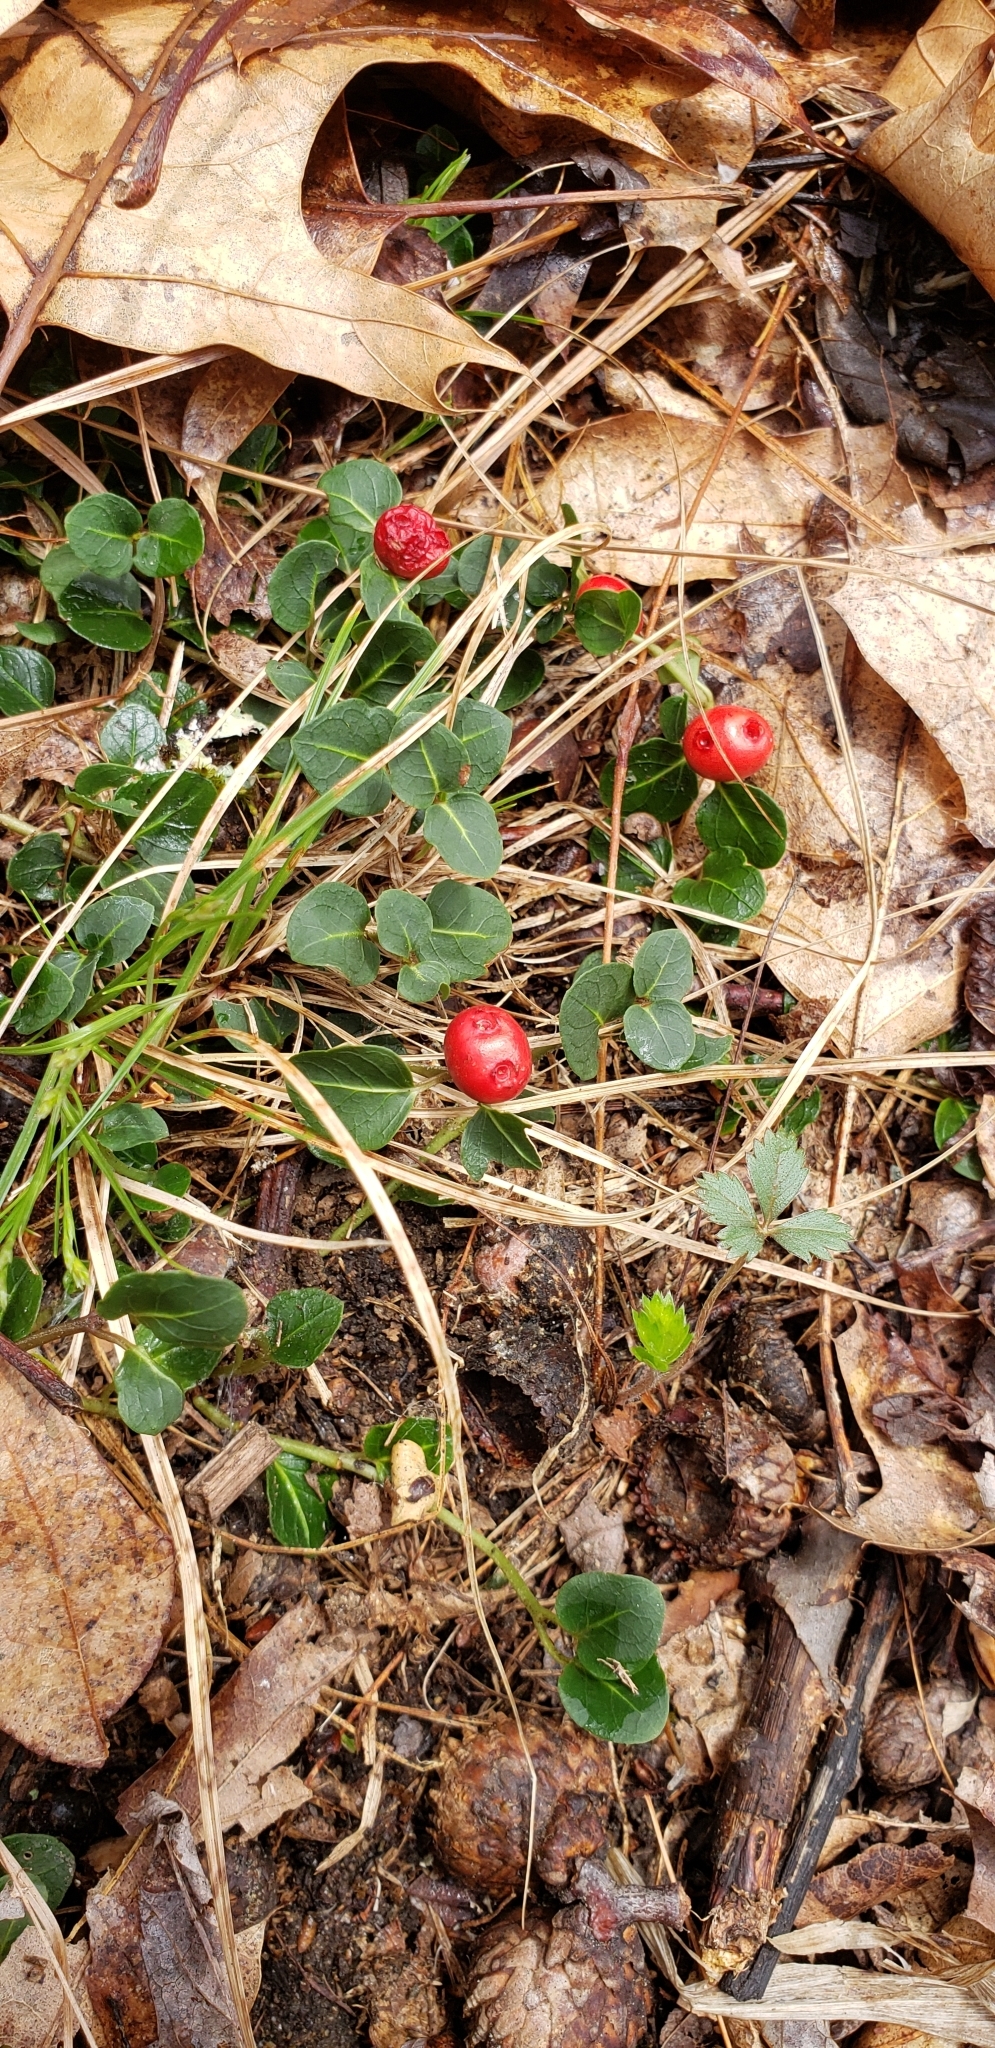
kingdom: Plantae
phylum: Tracheophyta
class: Magnoliopsida
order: Gentianales
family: Rubiaceae
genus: Mitchella
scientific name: Mitchella repens
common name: Partridge-berry
